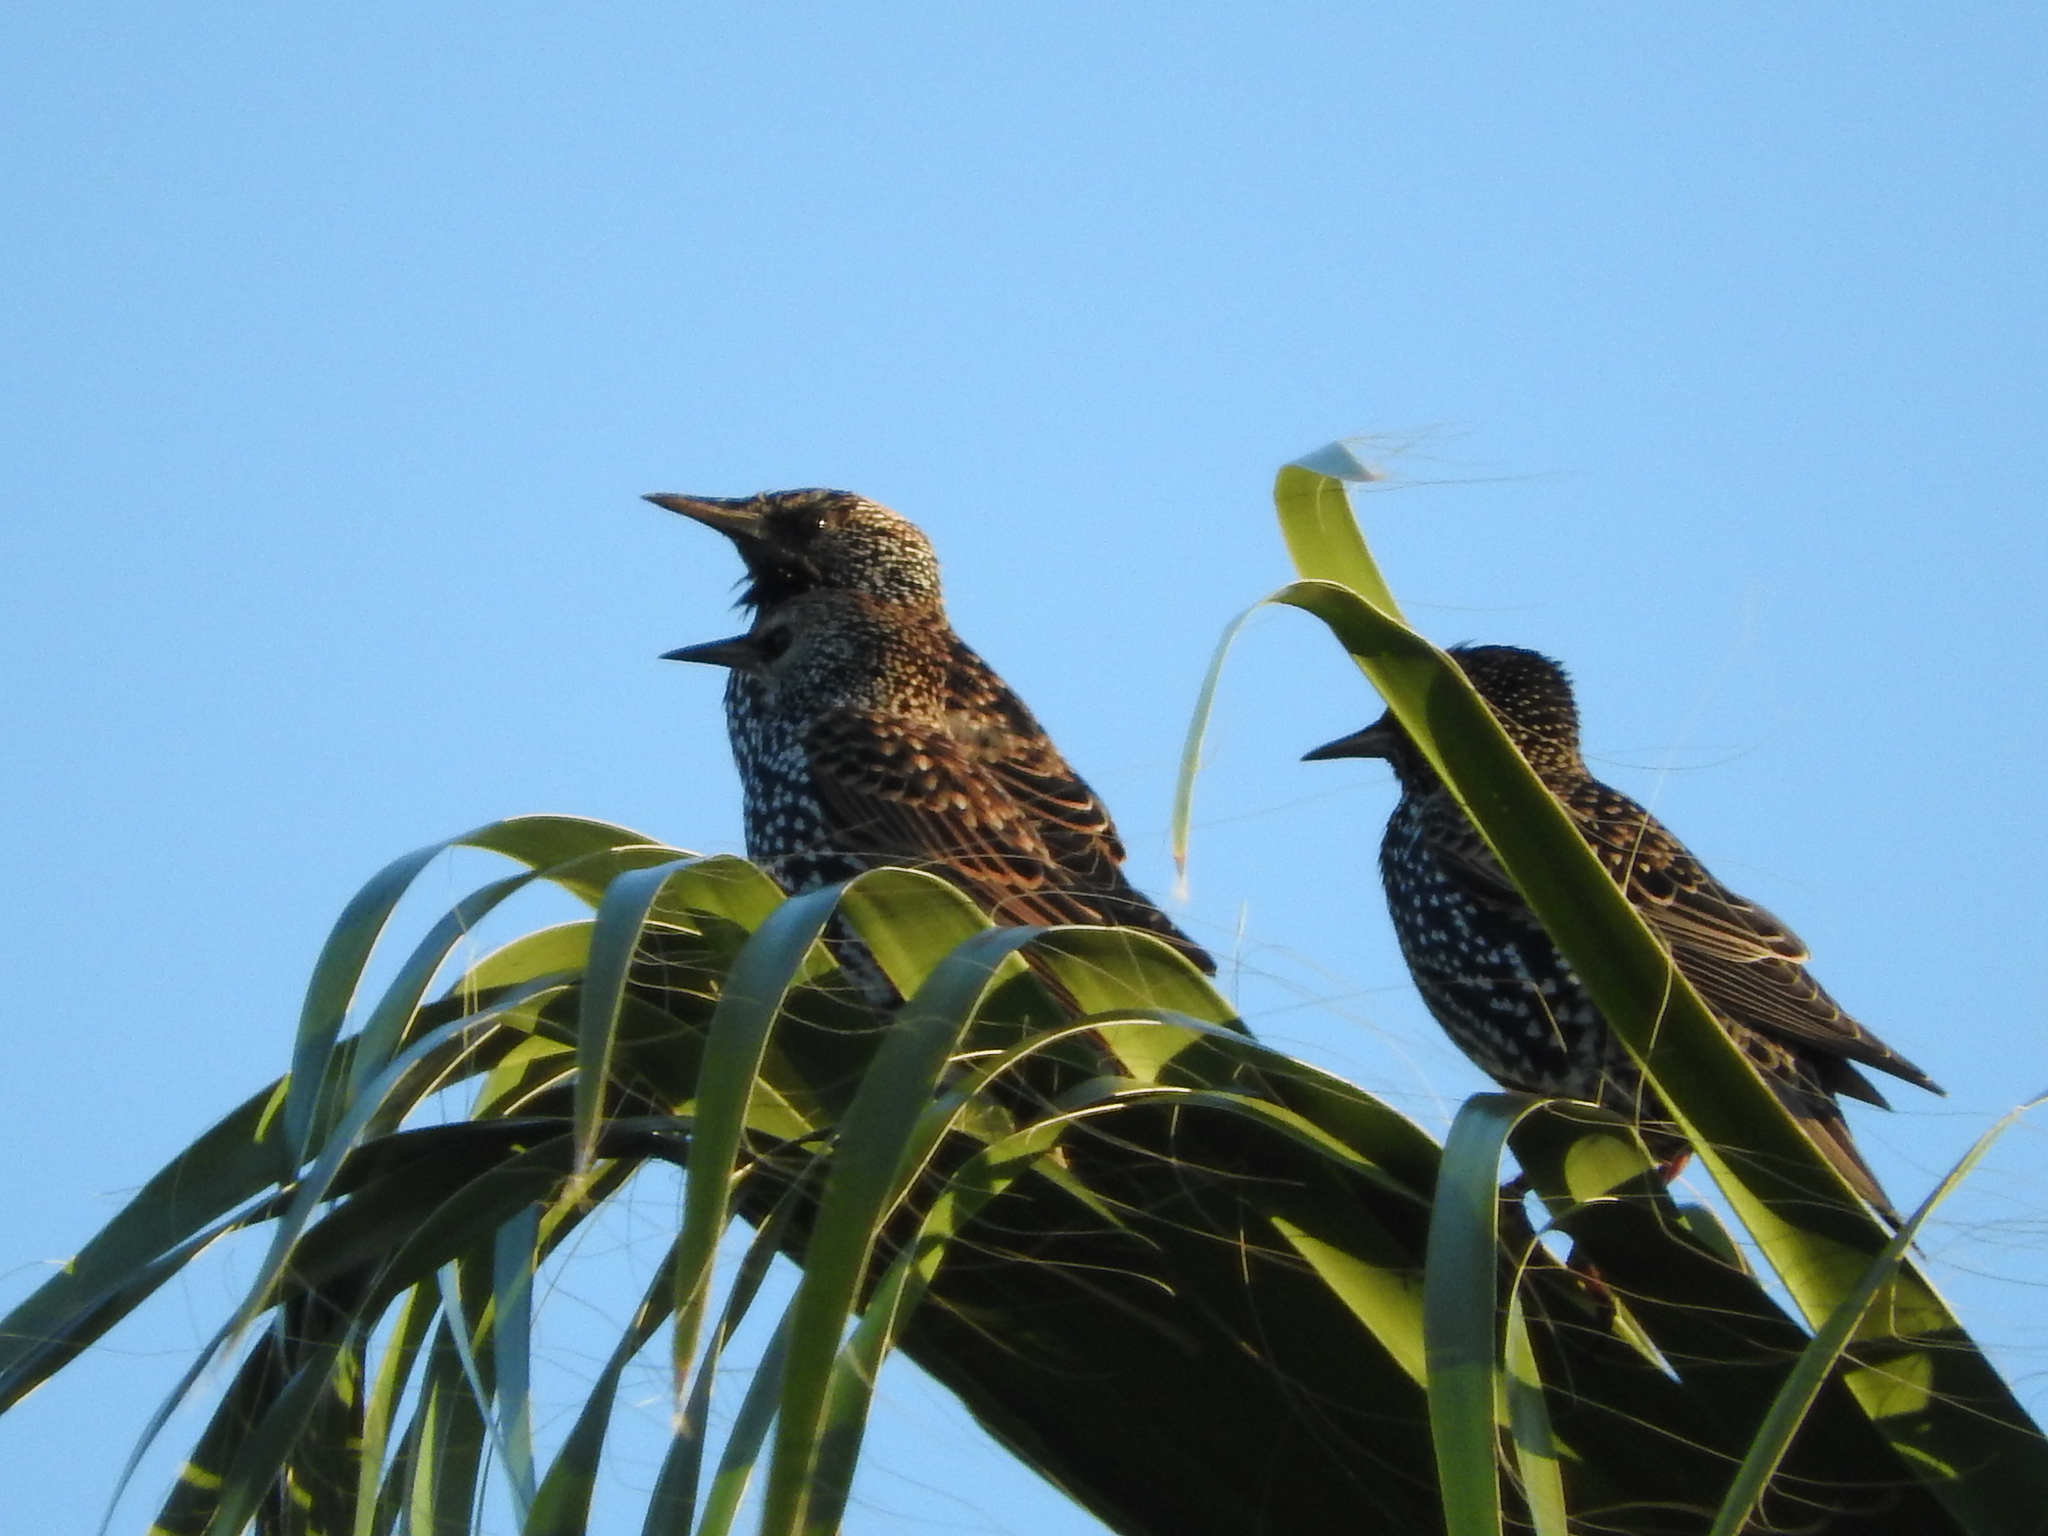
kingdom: Animalia
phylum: Chordata
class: Aves
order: Passeriformes
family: Sturnidae
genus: Sturnus
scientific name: Sturnus vulgaris
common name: Common starling
